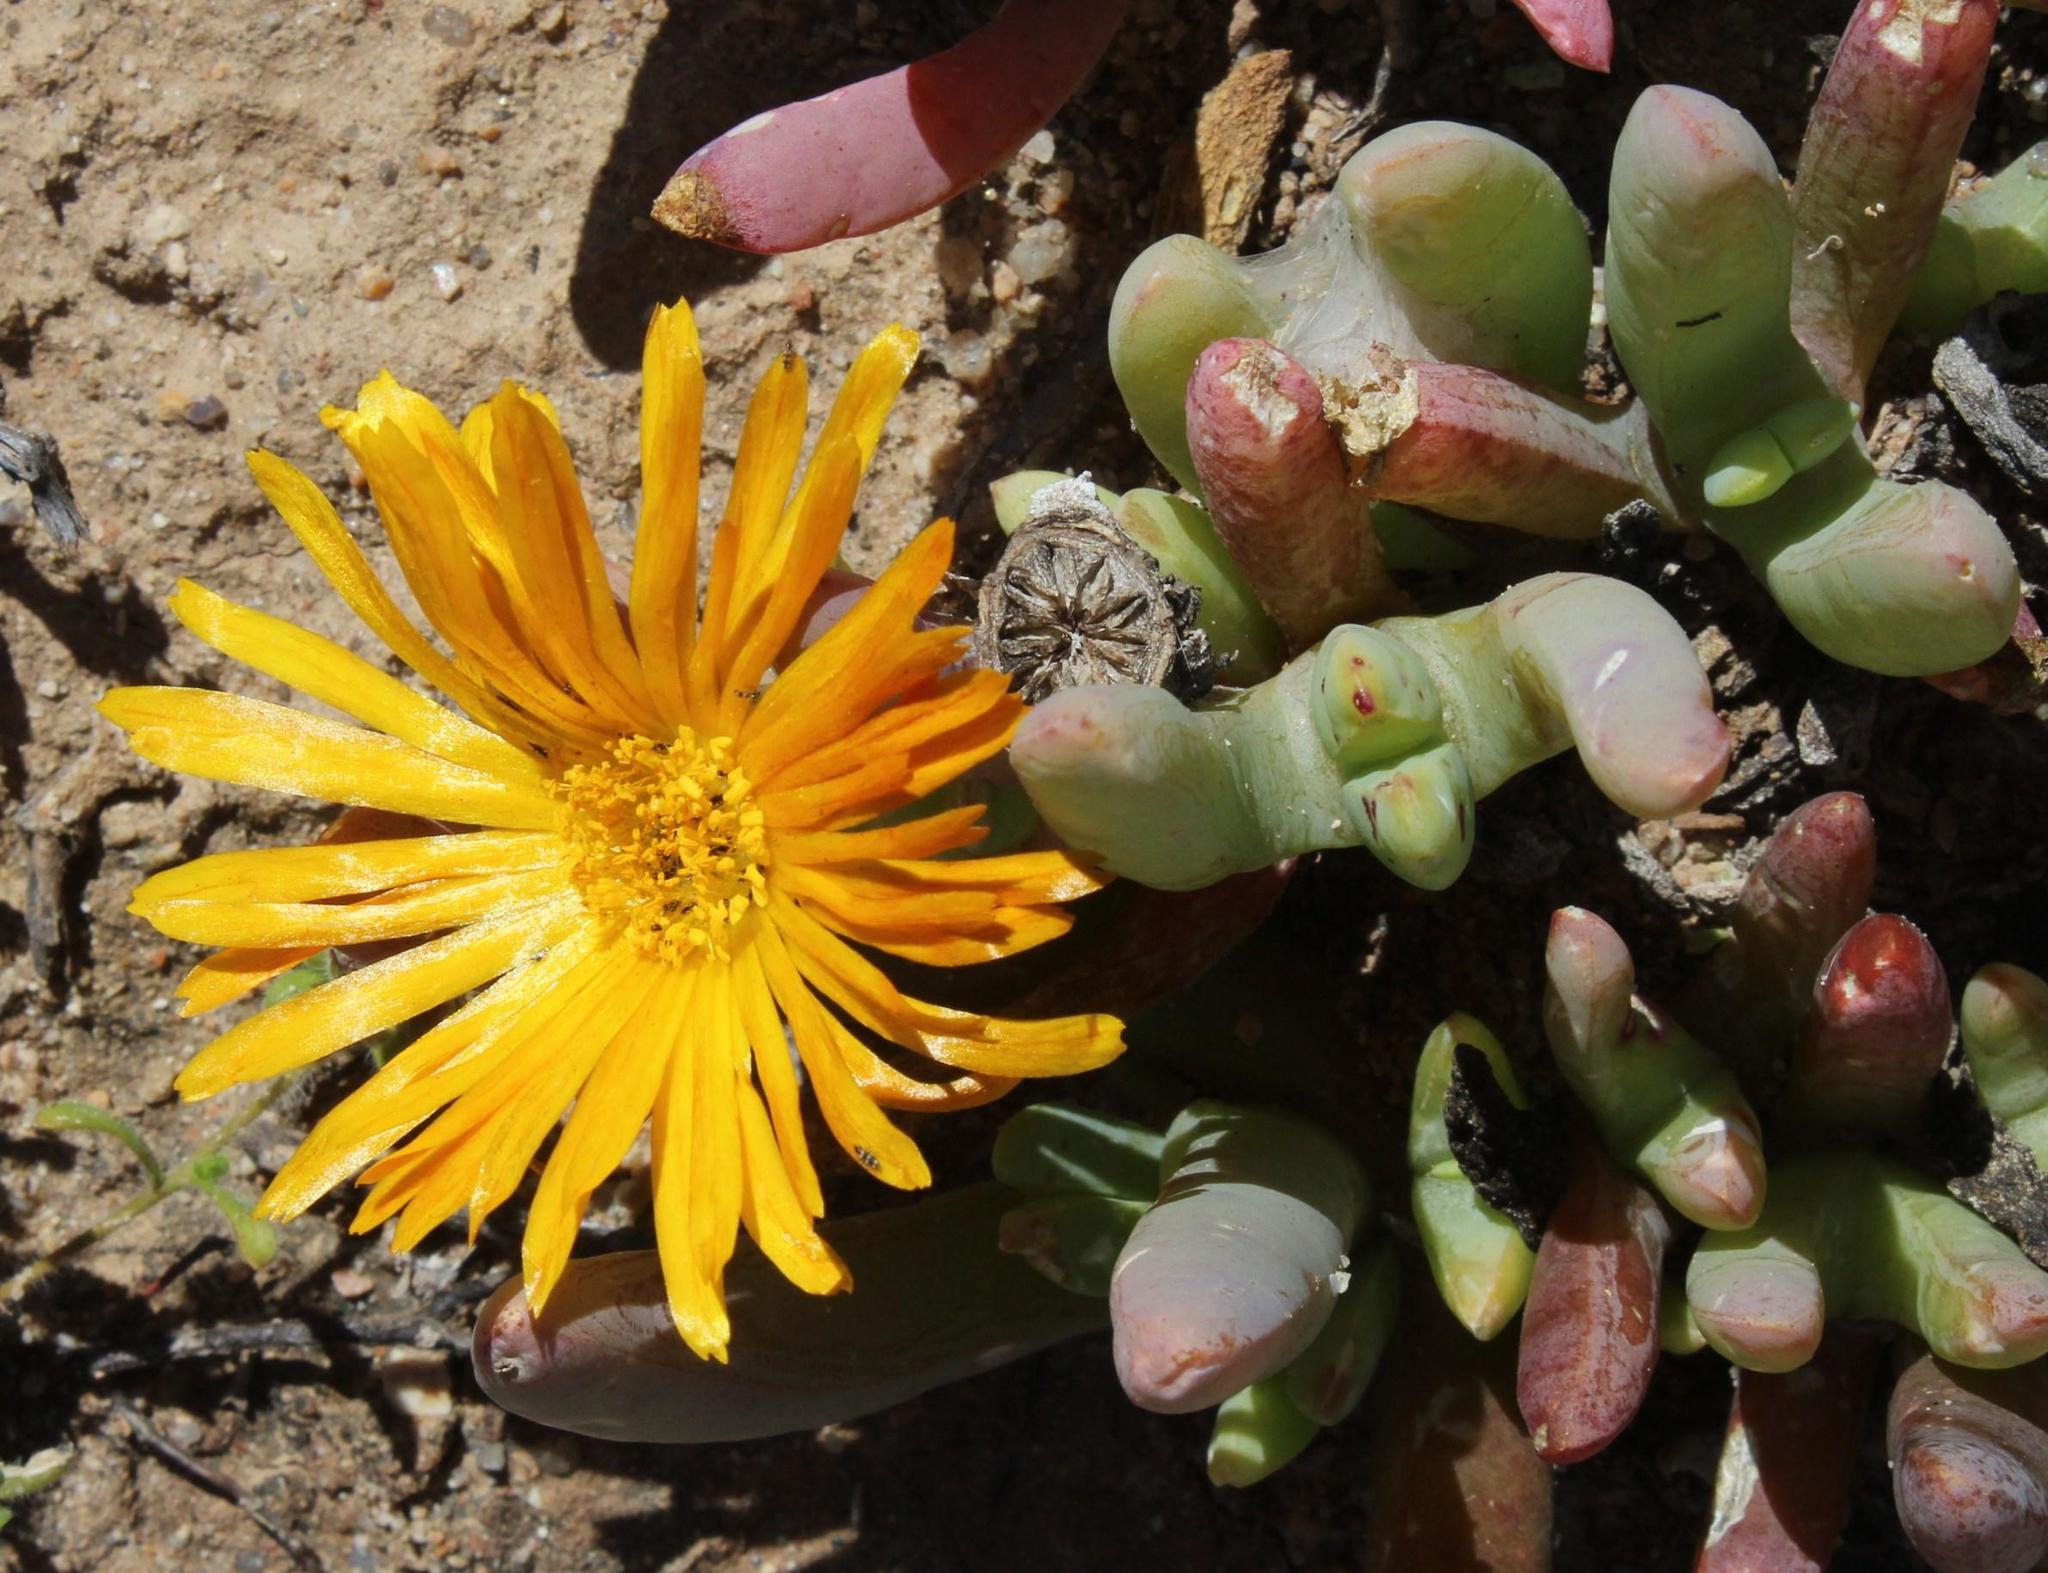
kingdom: Plantae
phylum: Tracheophyta
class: Magnoliopsida
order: Caryophyllales
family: Aizoaceae
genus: Malephora
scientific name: Malephora framesii
